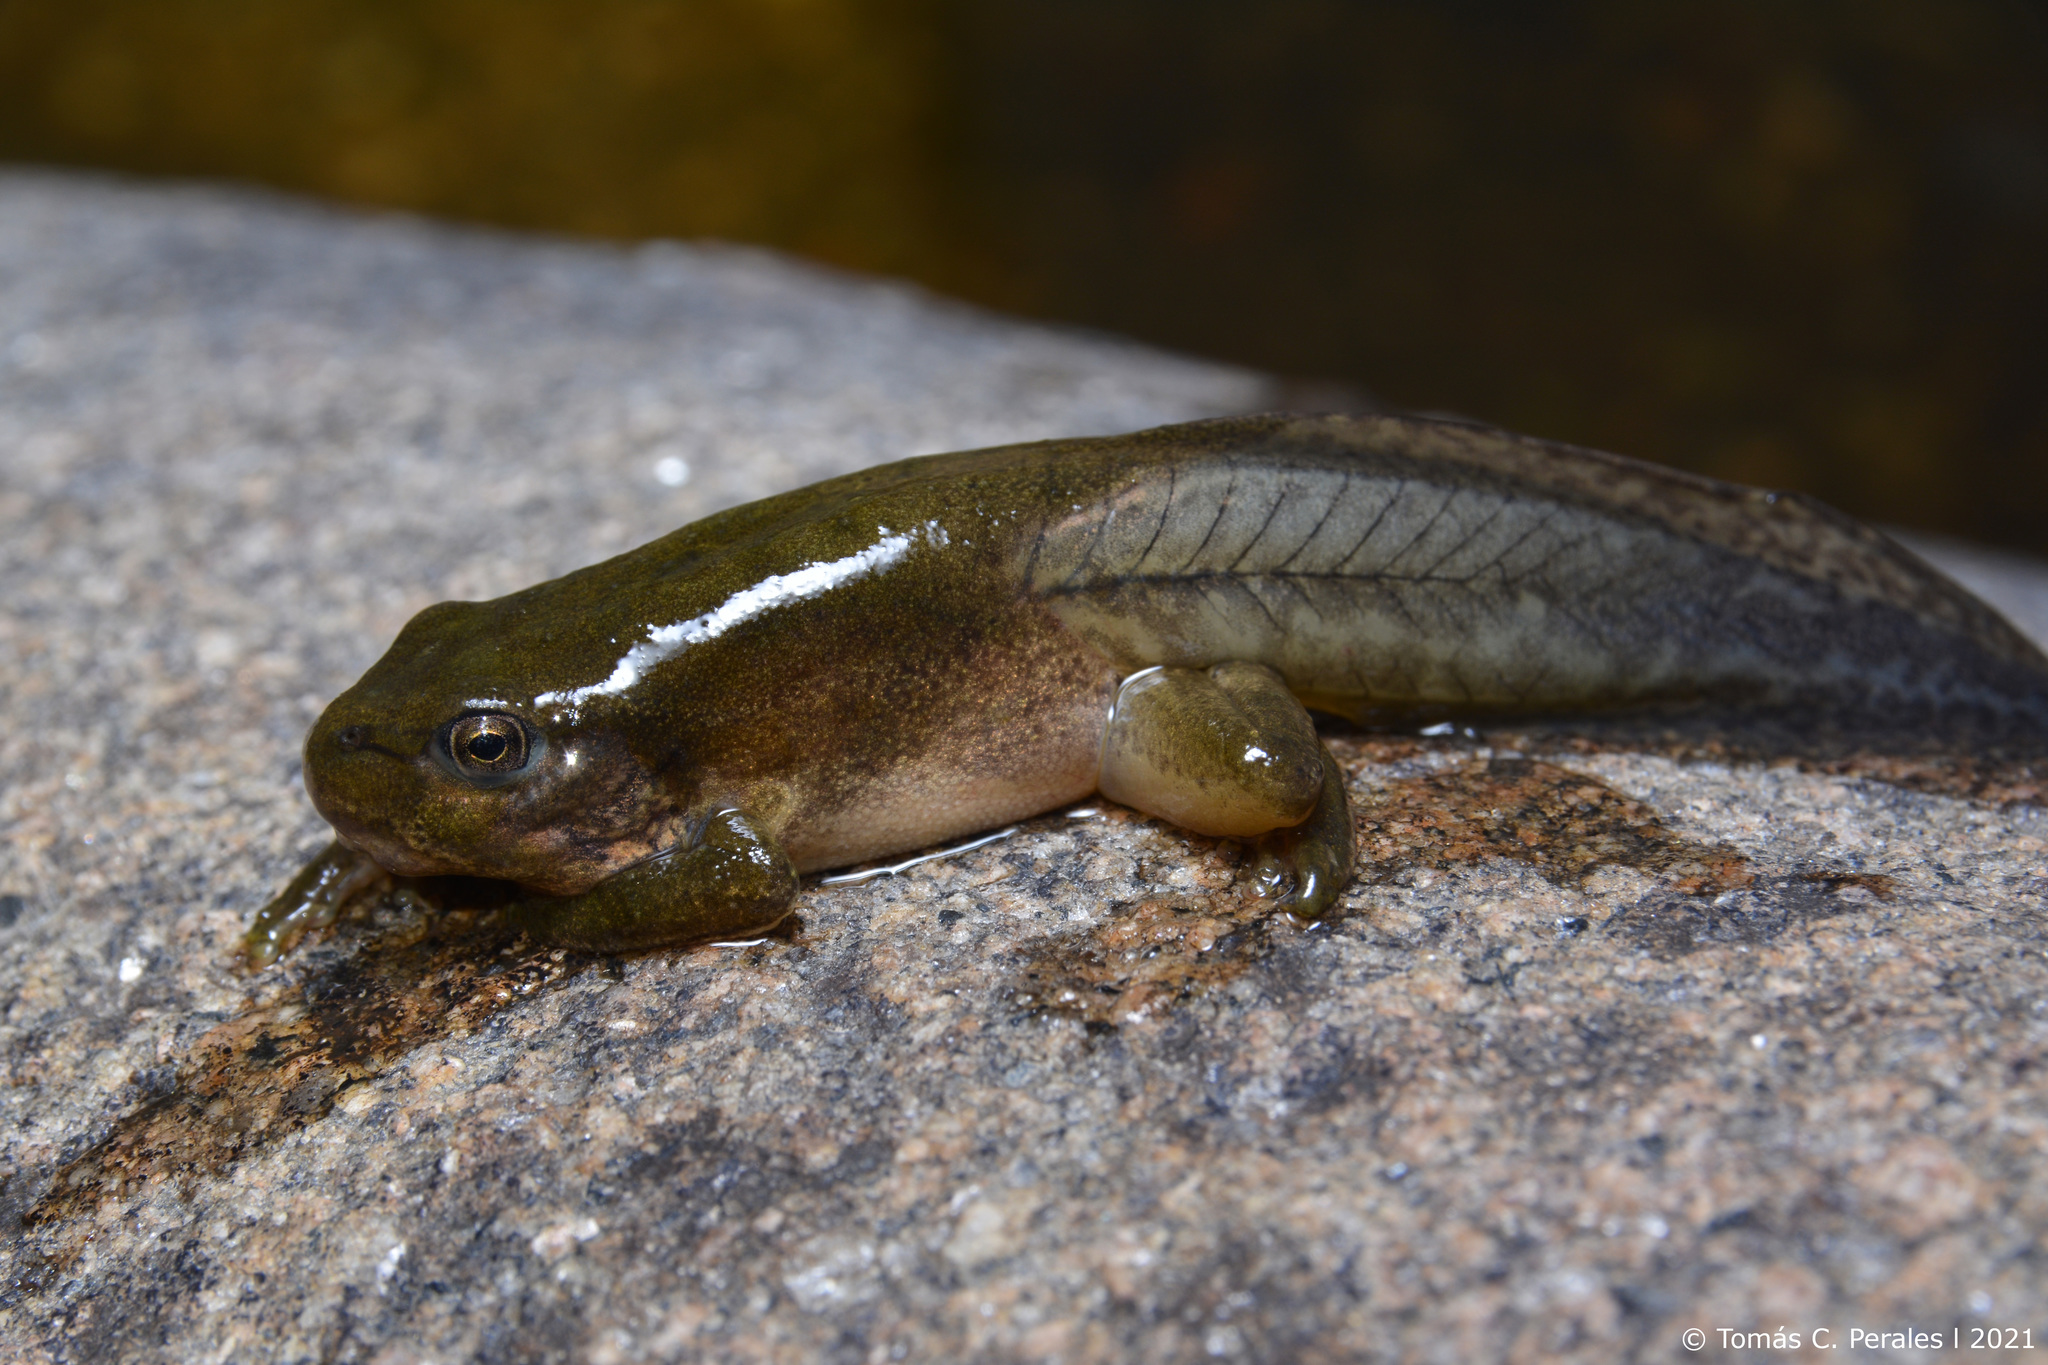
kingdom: Animalia
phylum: Chordata
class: Amphibia
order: Anura
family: Hylidae
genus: Boana
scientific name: Boana cordobae
